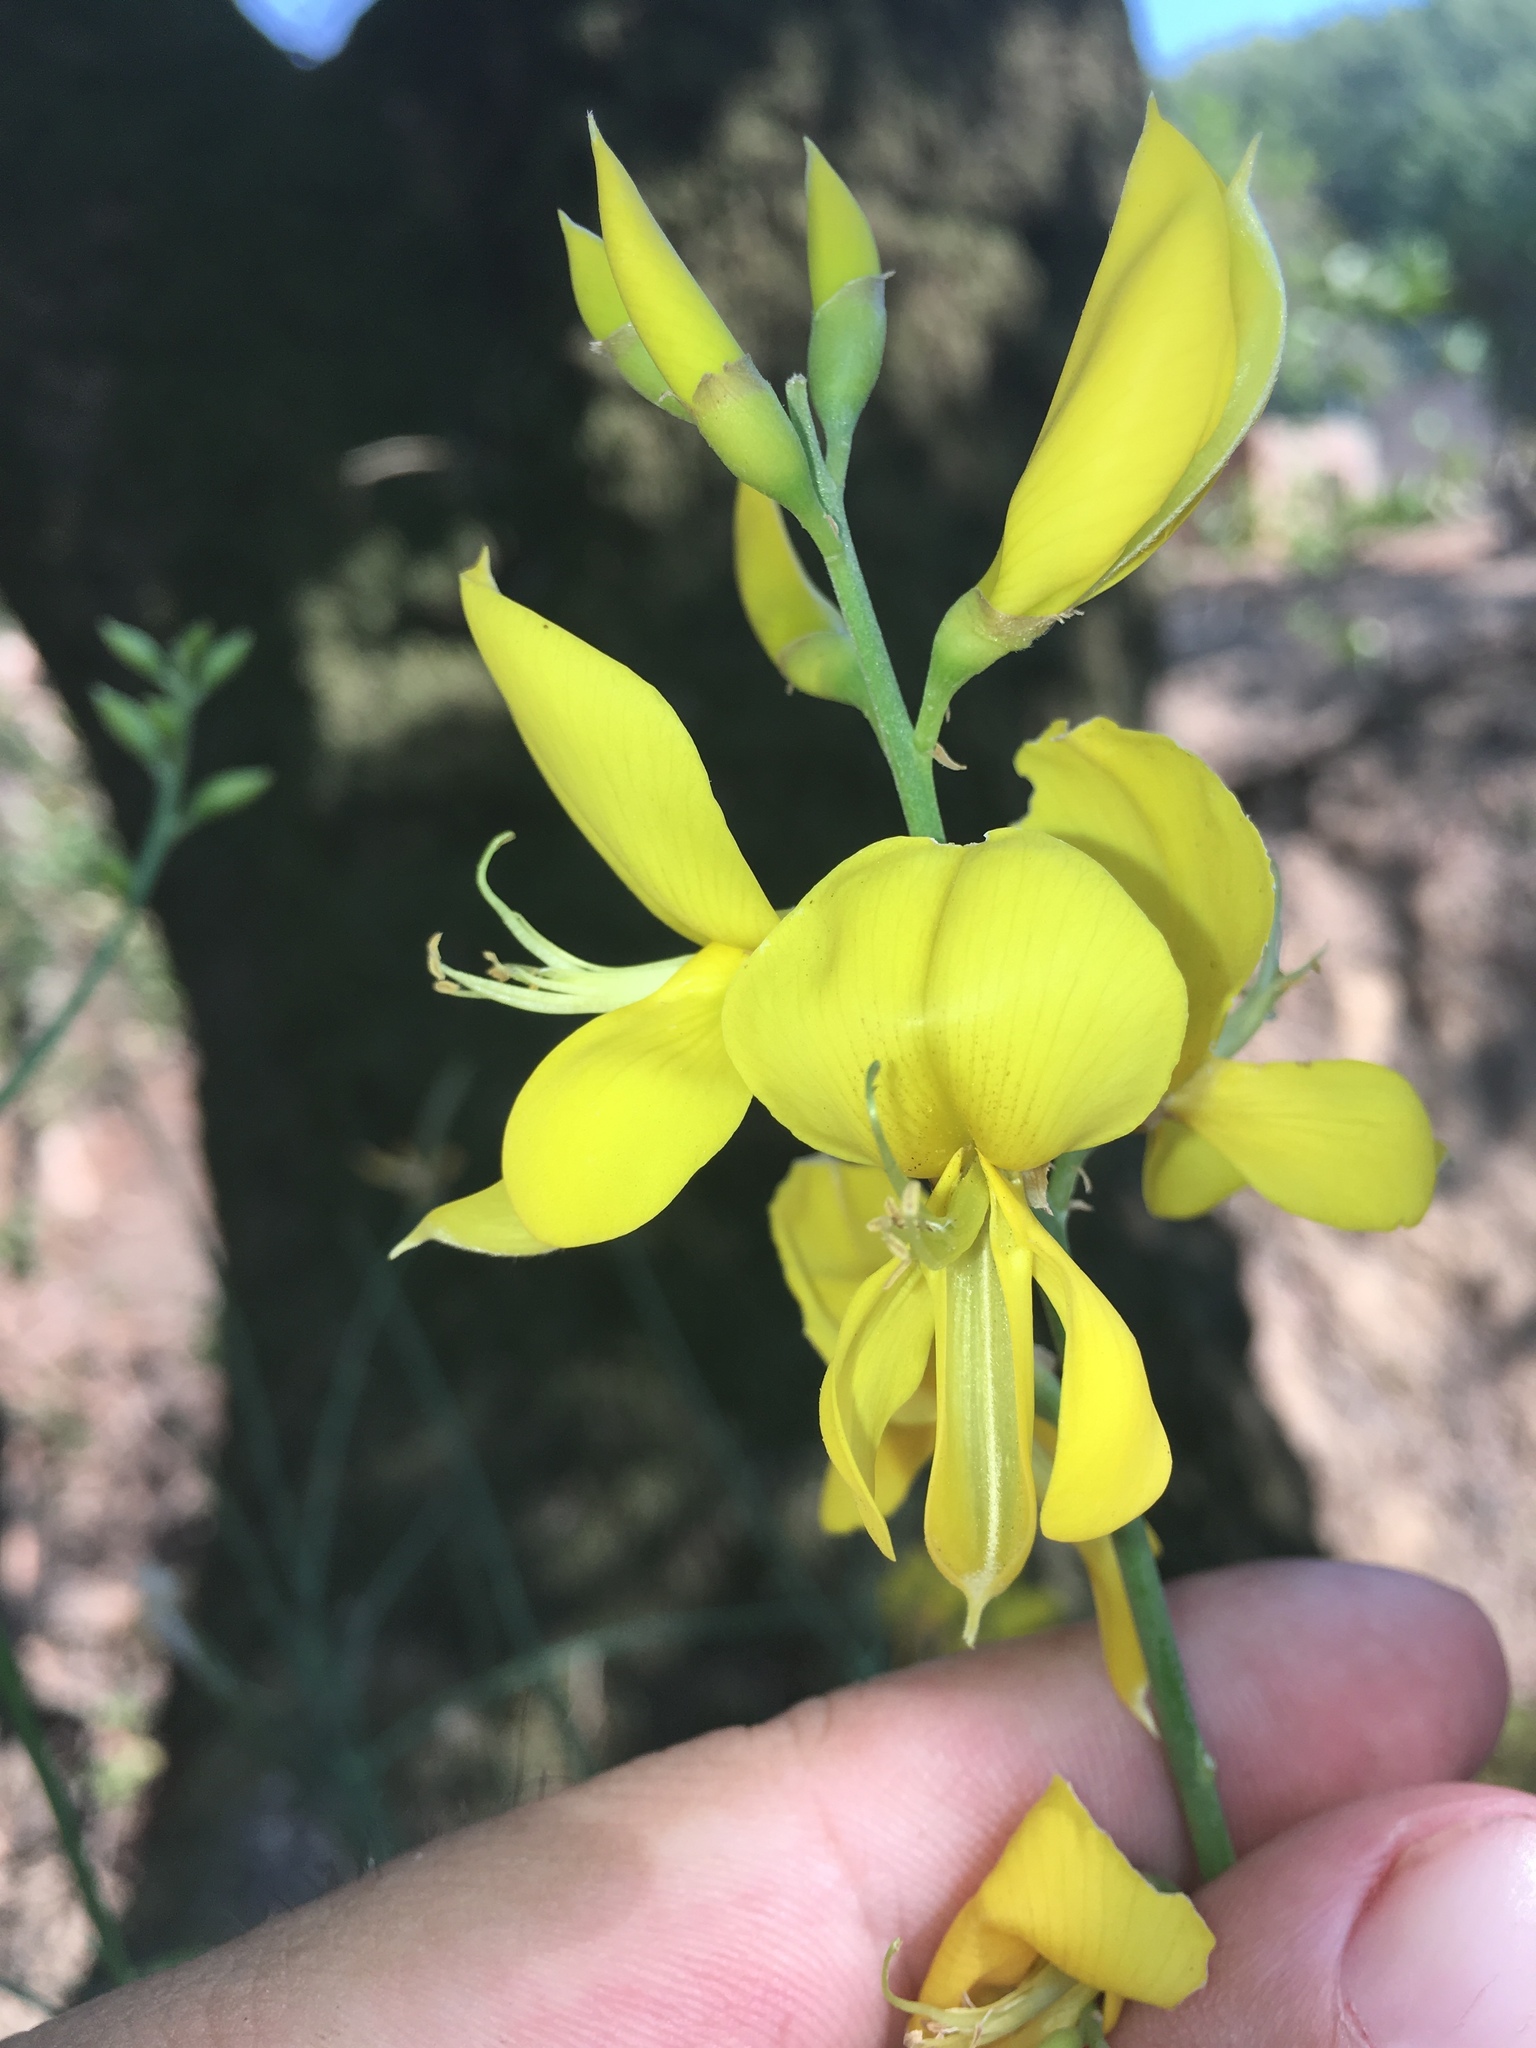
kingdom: Plantae
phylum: Tracheophyta
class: Magnoliopsida
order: Fabales
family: Fabaceae
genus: Spartium
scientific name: Spartium junceum
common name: Spanish broom
